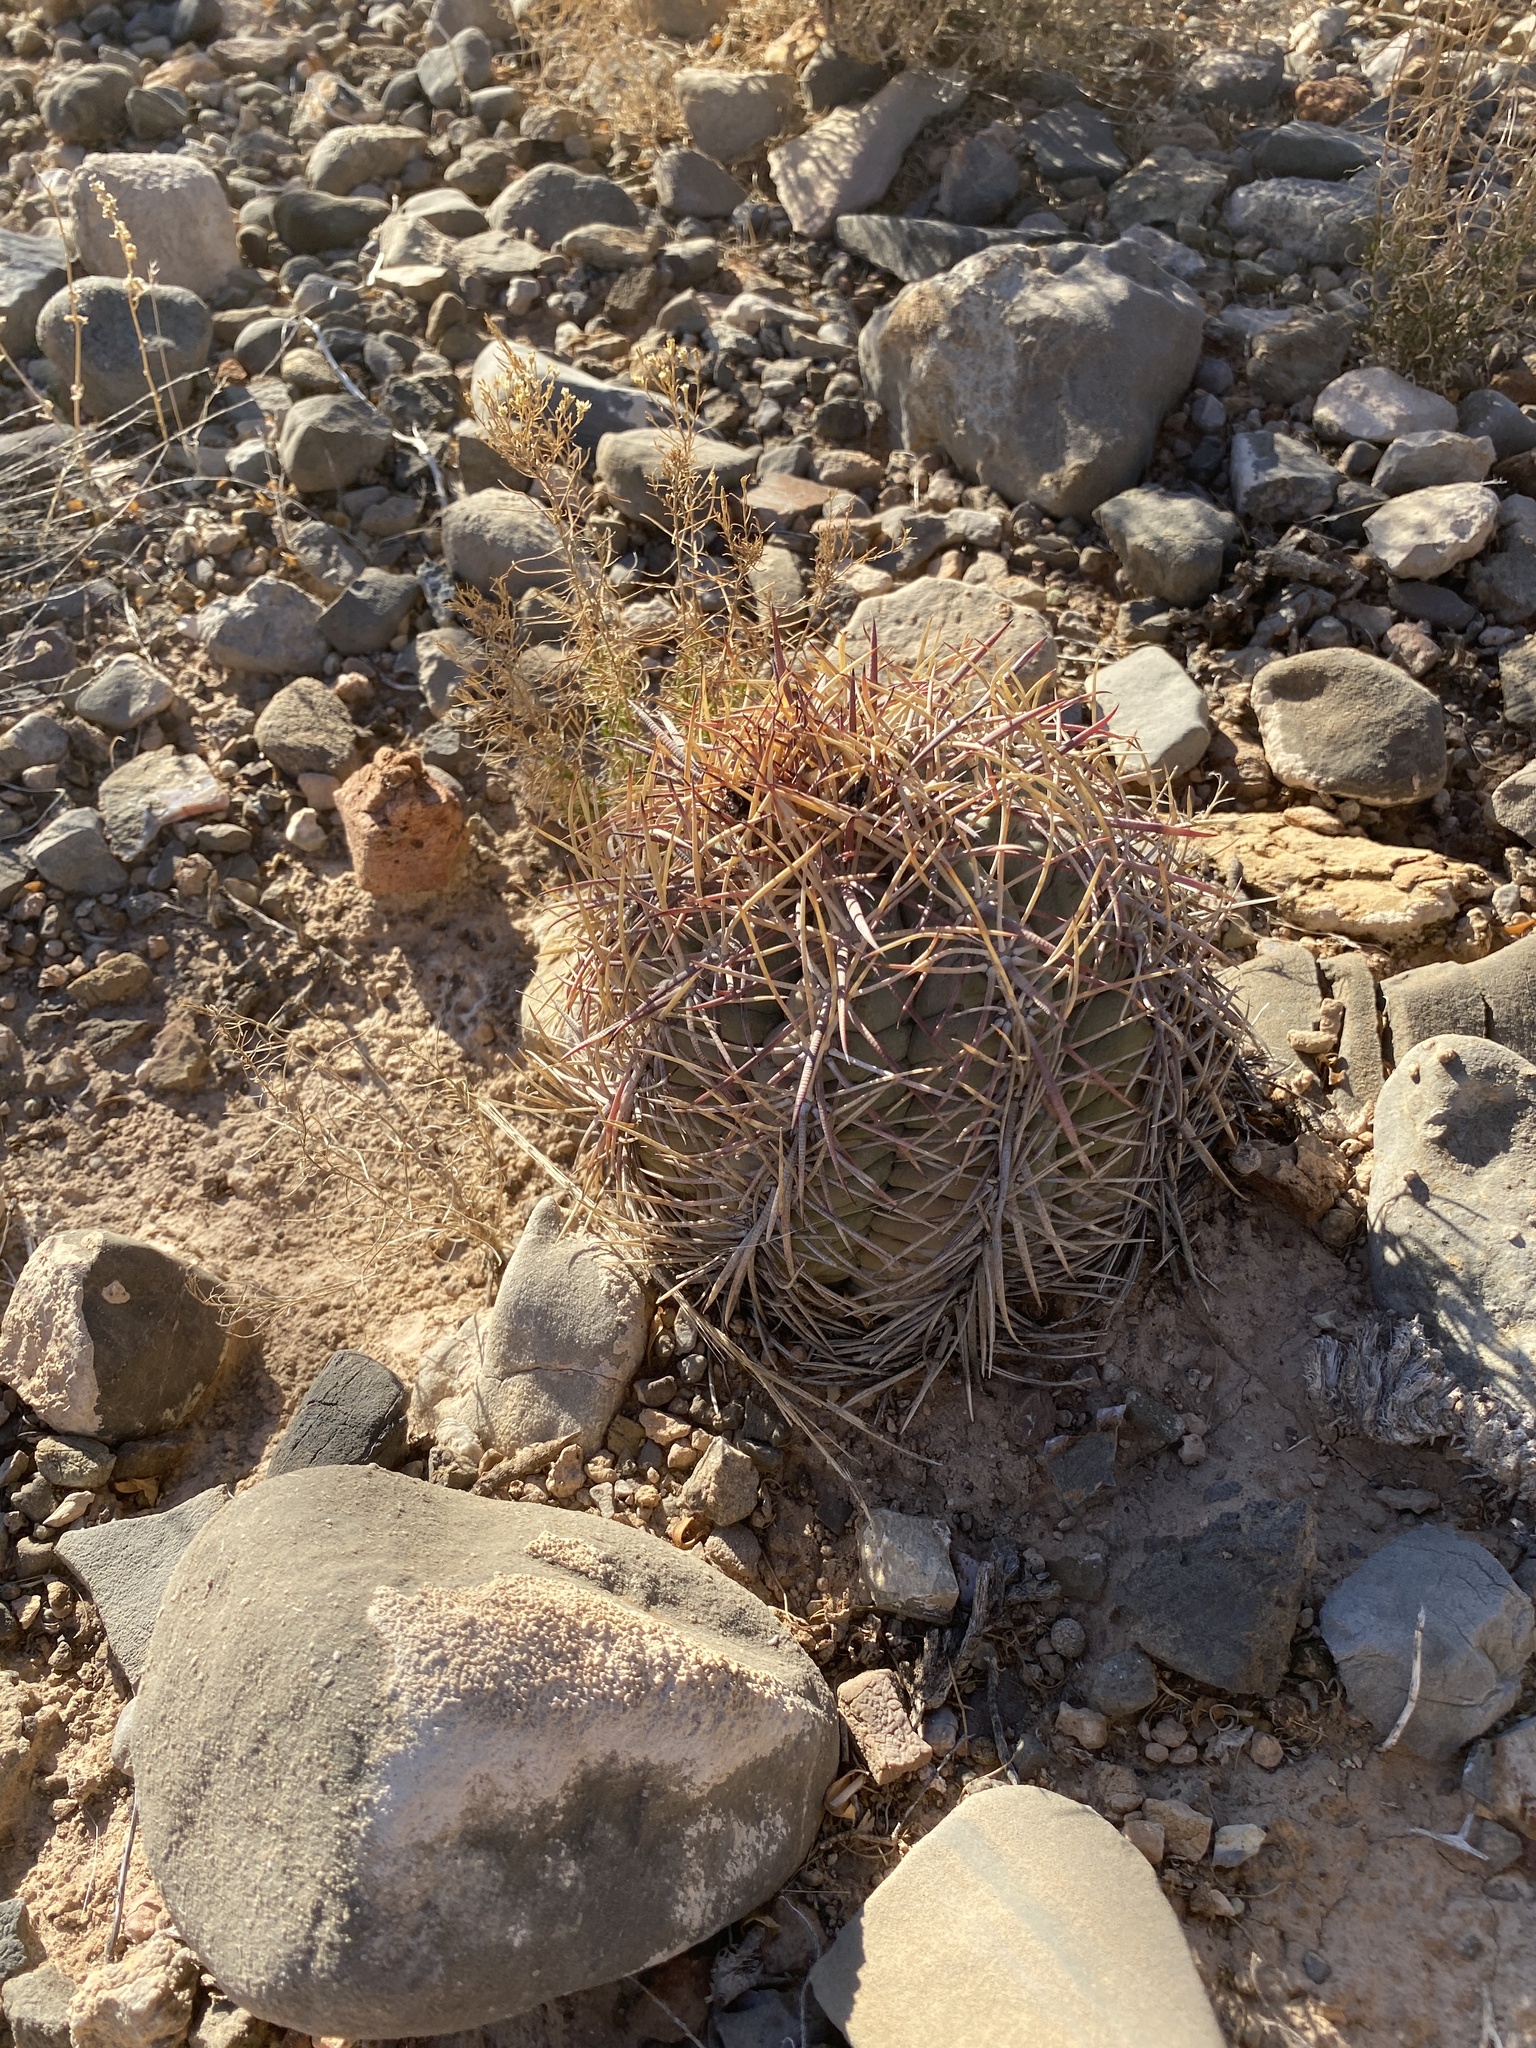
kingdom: Plantae
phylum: Tracheophyta
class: Magnoliopsida
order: Caryophyllales
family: Cactaceae
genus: Echinocactus
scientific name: Echinocactus horizonthalonius
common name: Devilshead
